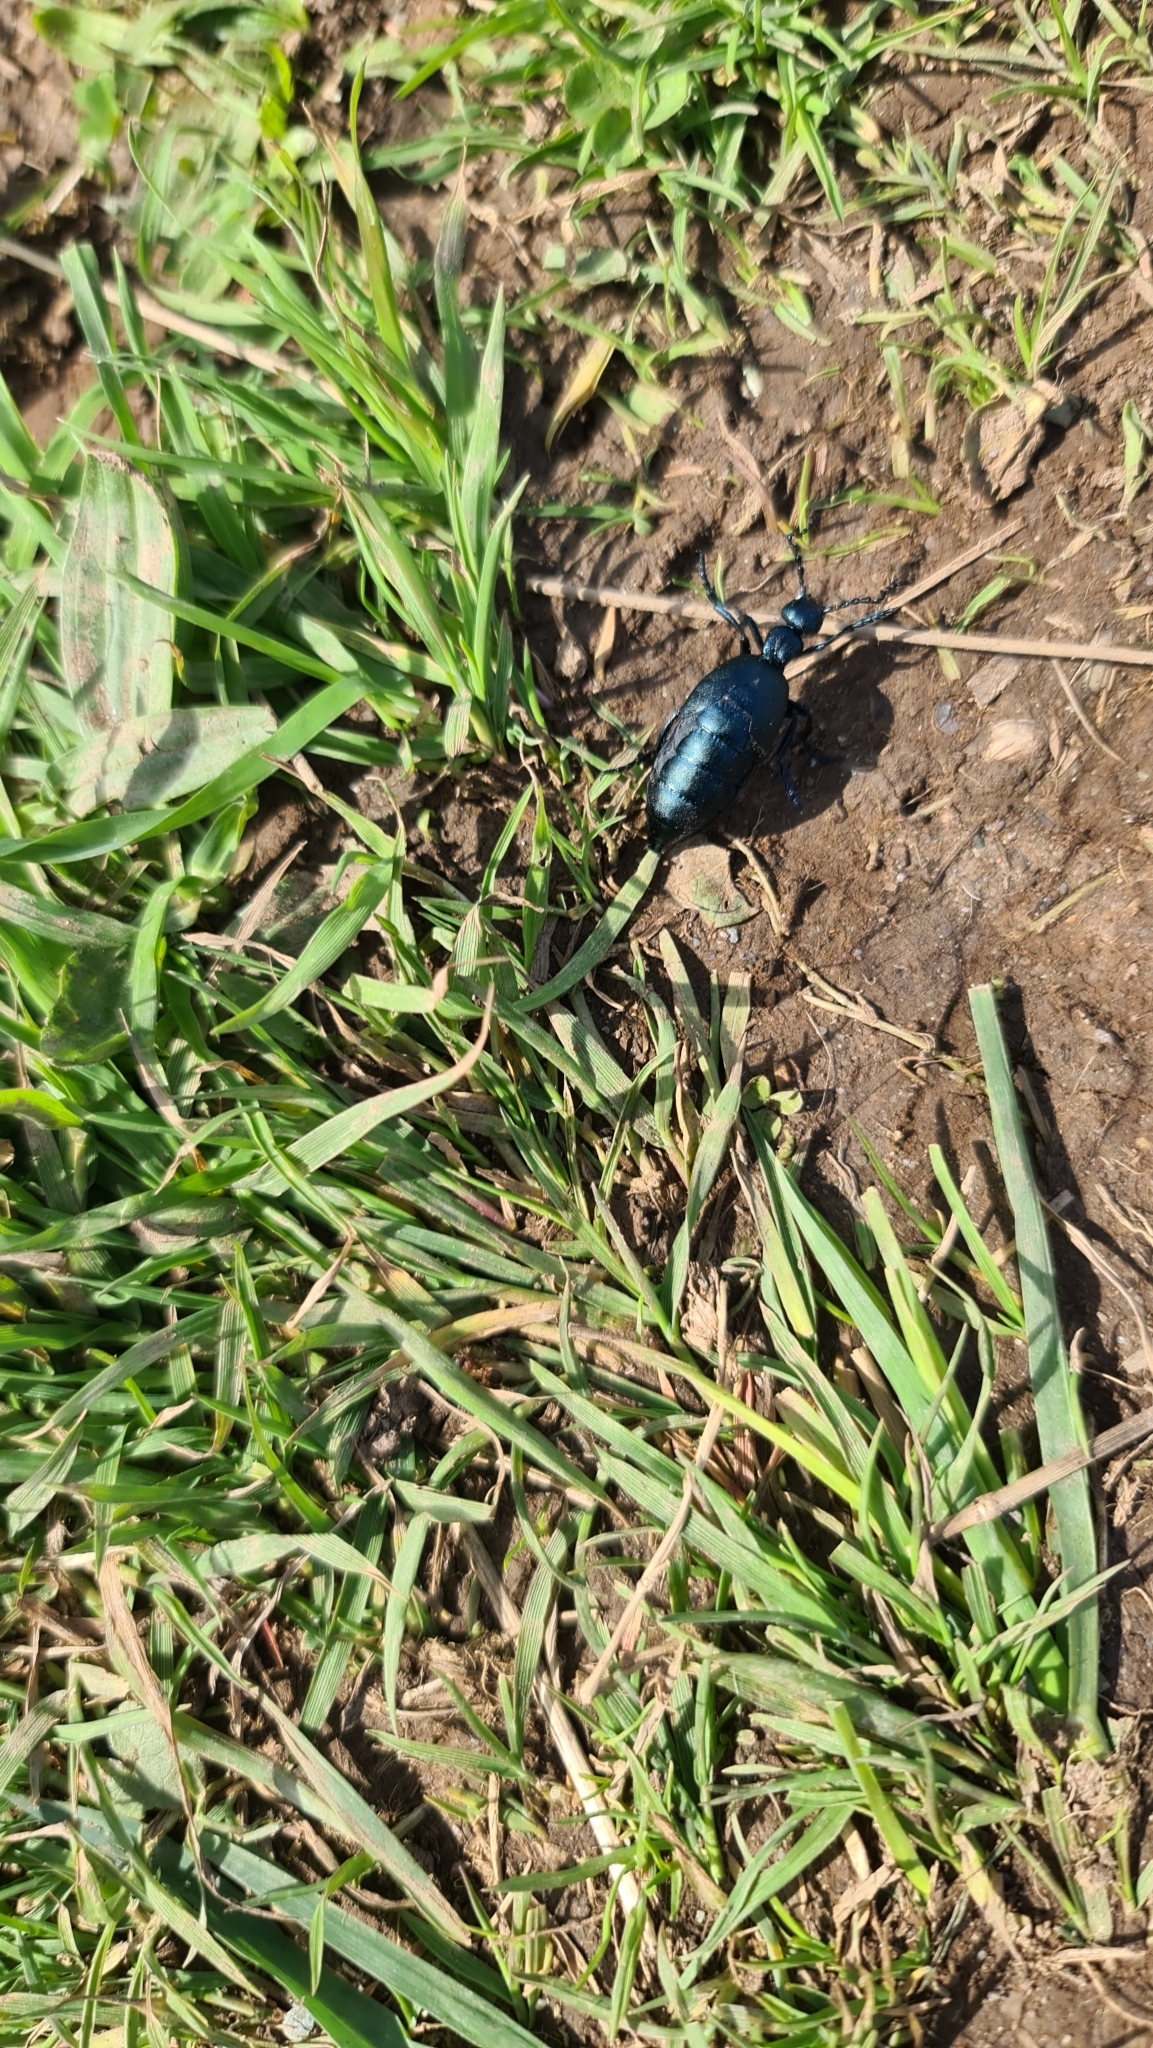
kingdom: Animalia
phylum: Arthropoda
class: Insecta
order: Coleoptera
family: Meloidae
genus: Meloe
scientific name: Meloe violaceus
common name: Violet oil-beetle
